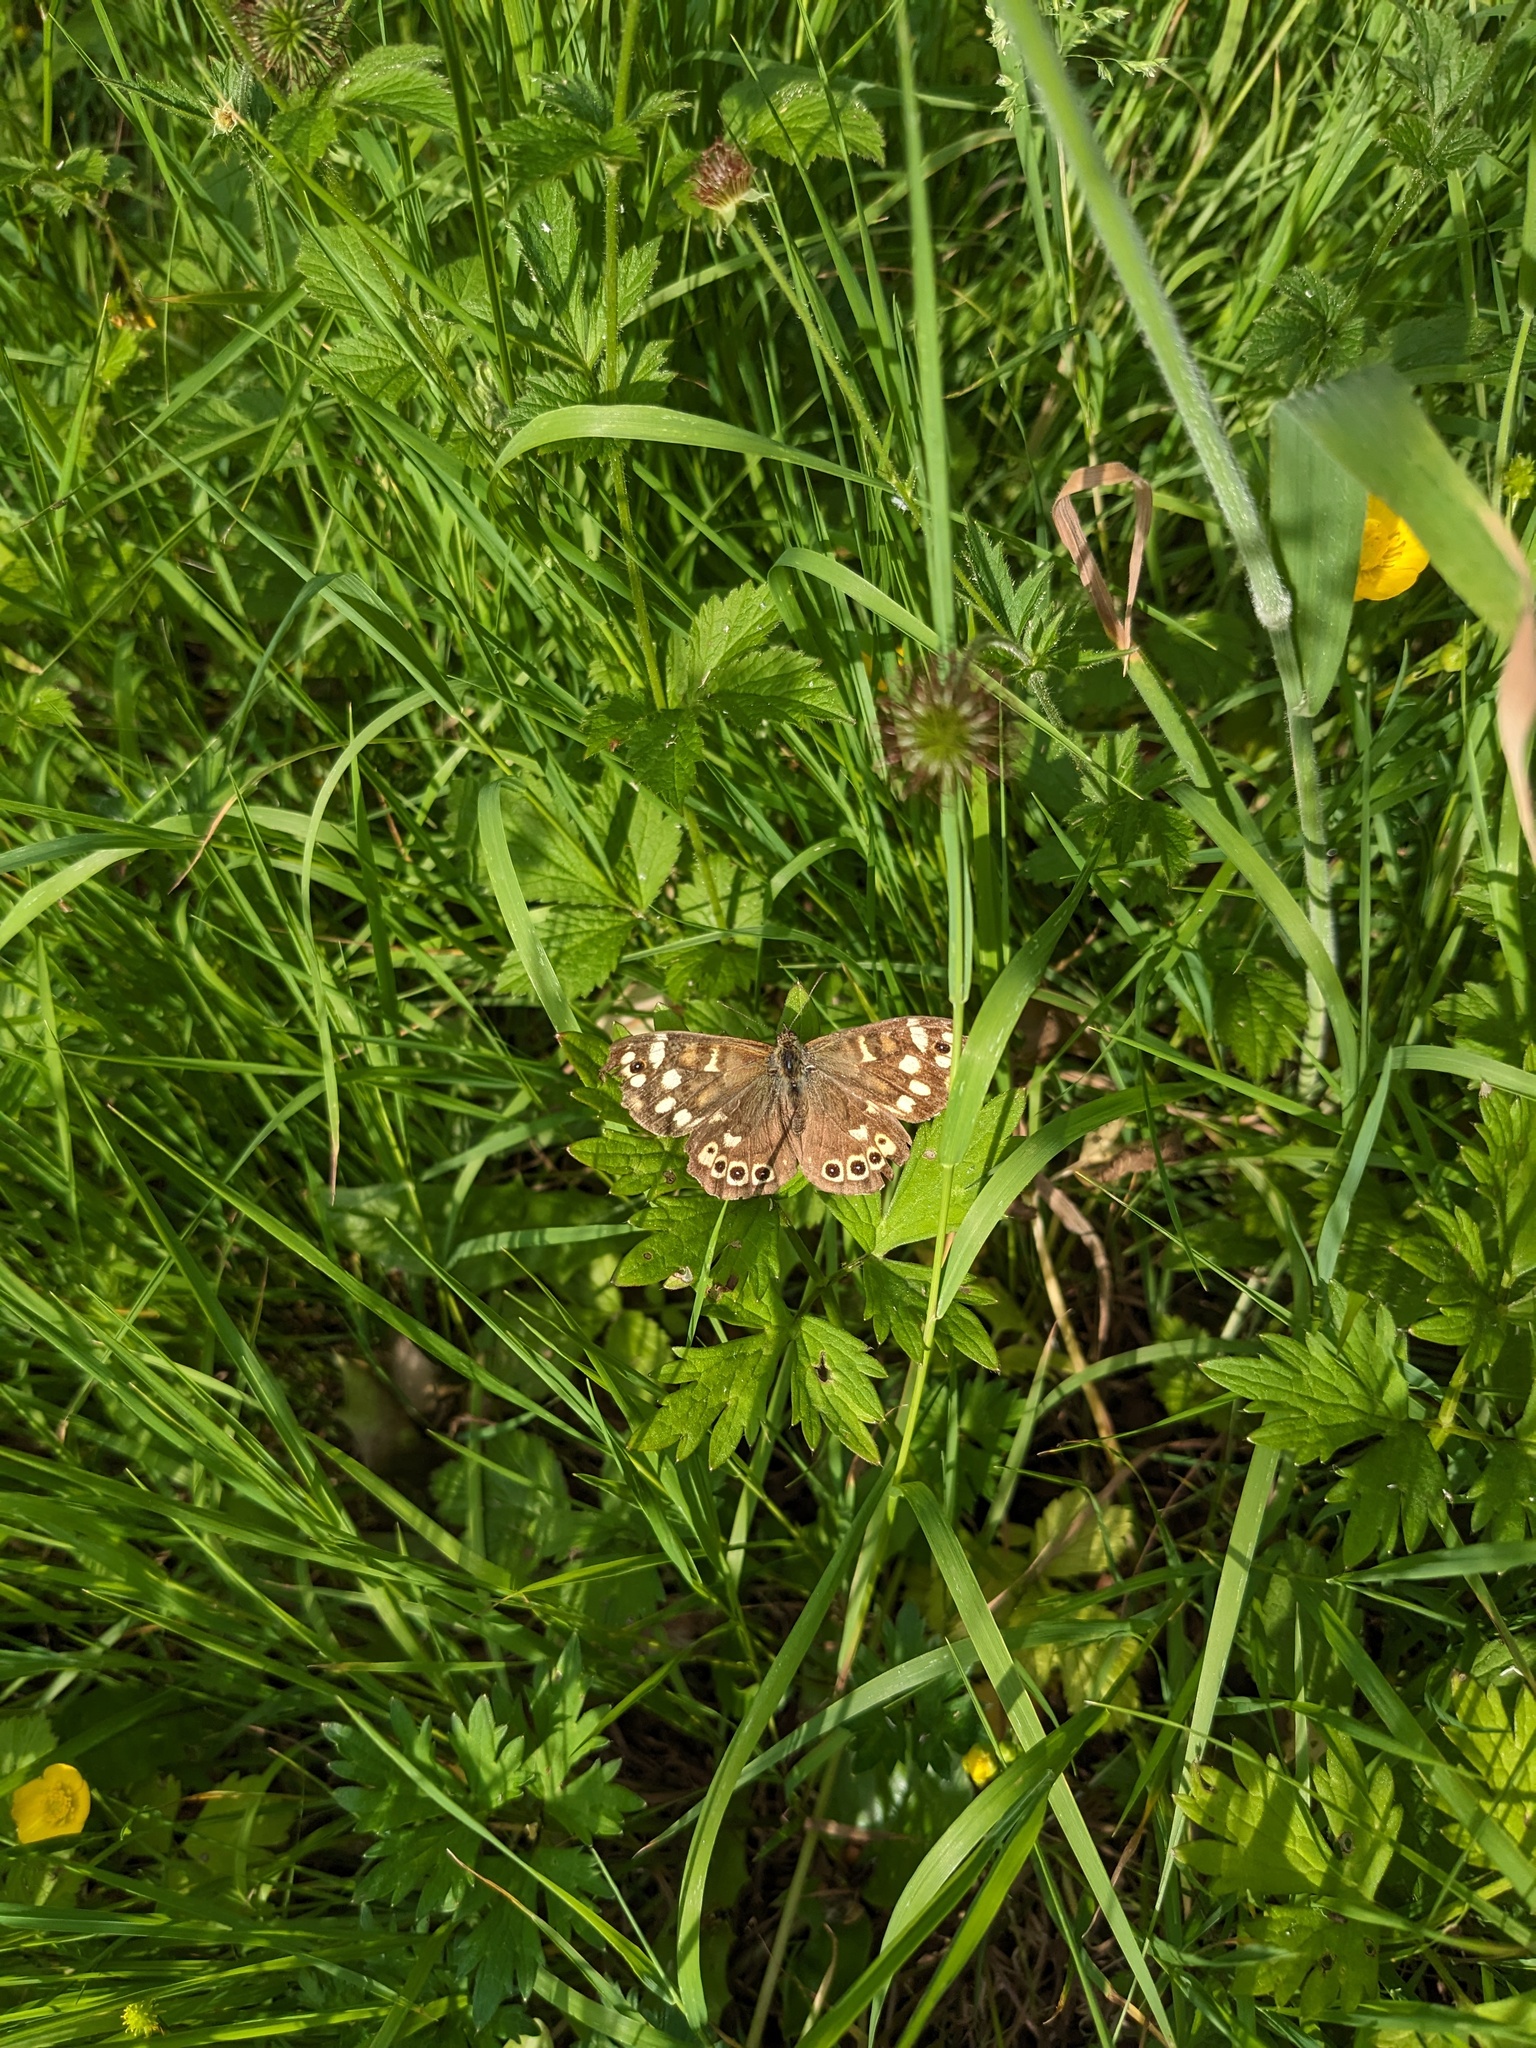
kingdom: Animalia
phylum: Arthropoda
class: Insecta
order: Lepidoptera
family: Nymphalidae
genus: Pararge
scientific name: Pararge aegeria
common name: Speckled wood
